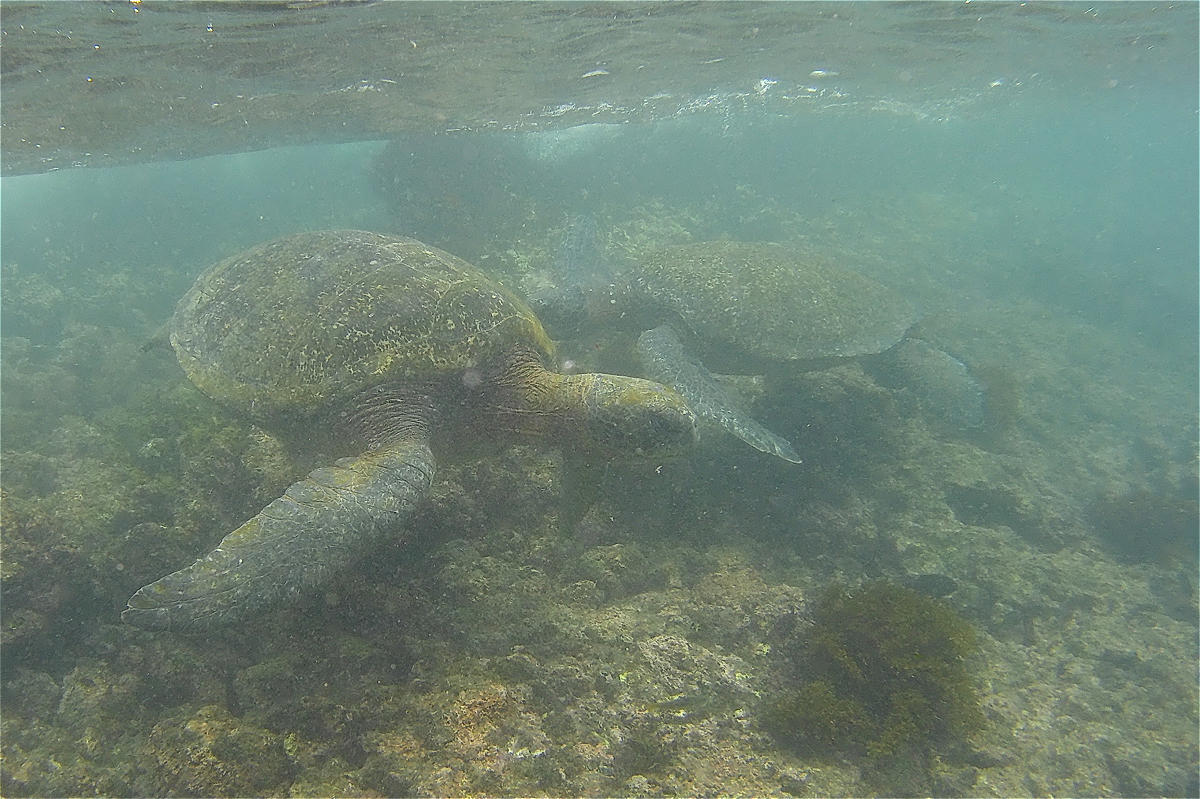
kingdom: Animalia
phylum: Chordata
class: Testudines
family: Cheloniidae
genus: Chelonia
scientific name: Chelonia mydas
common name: Green turtle
